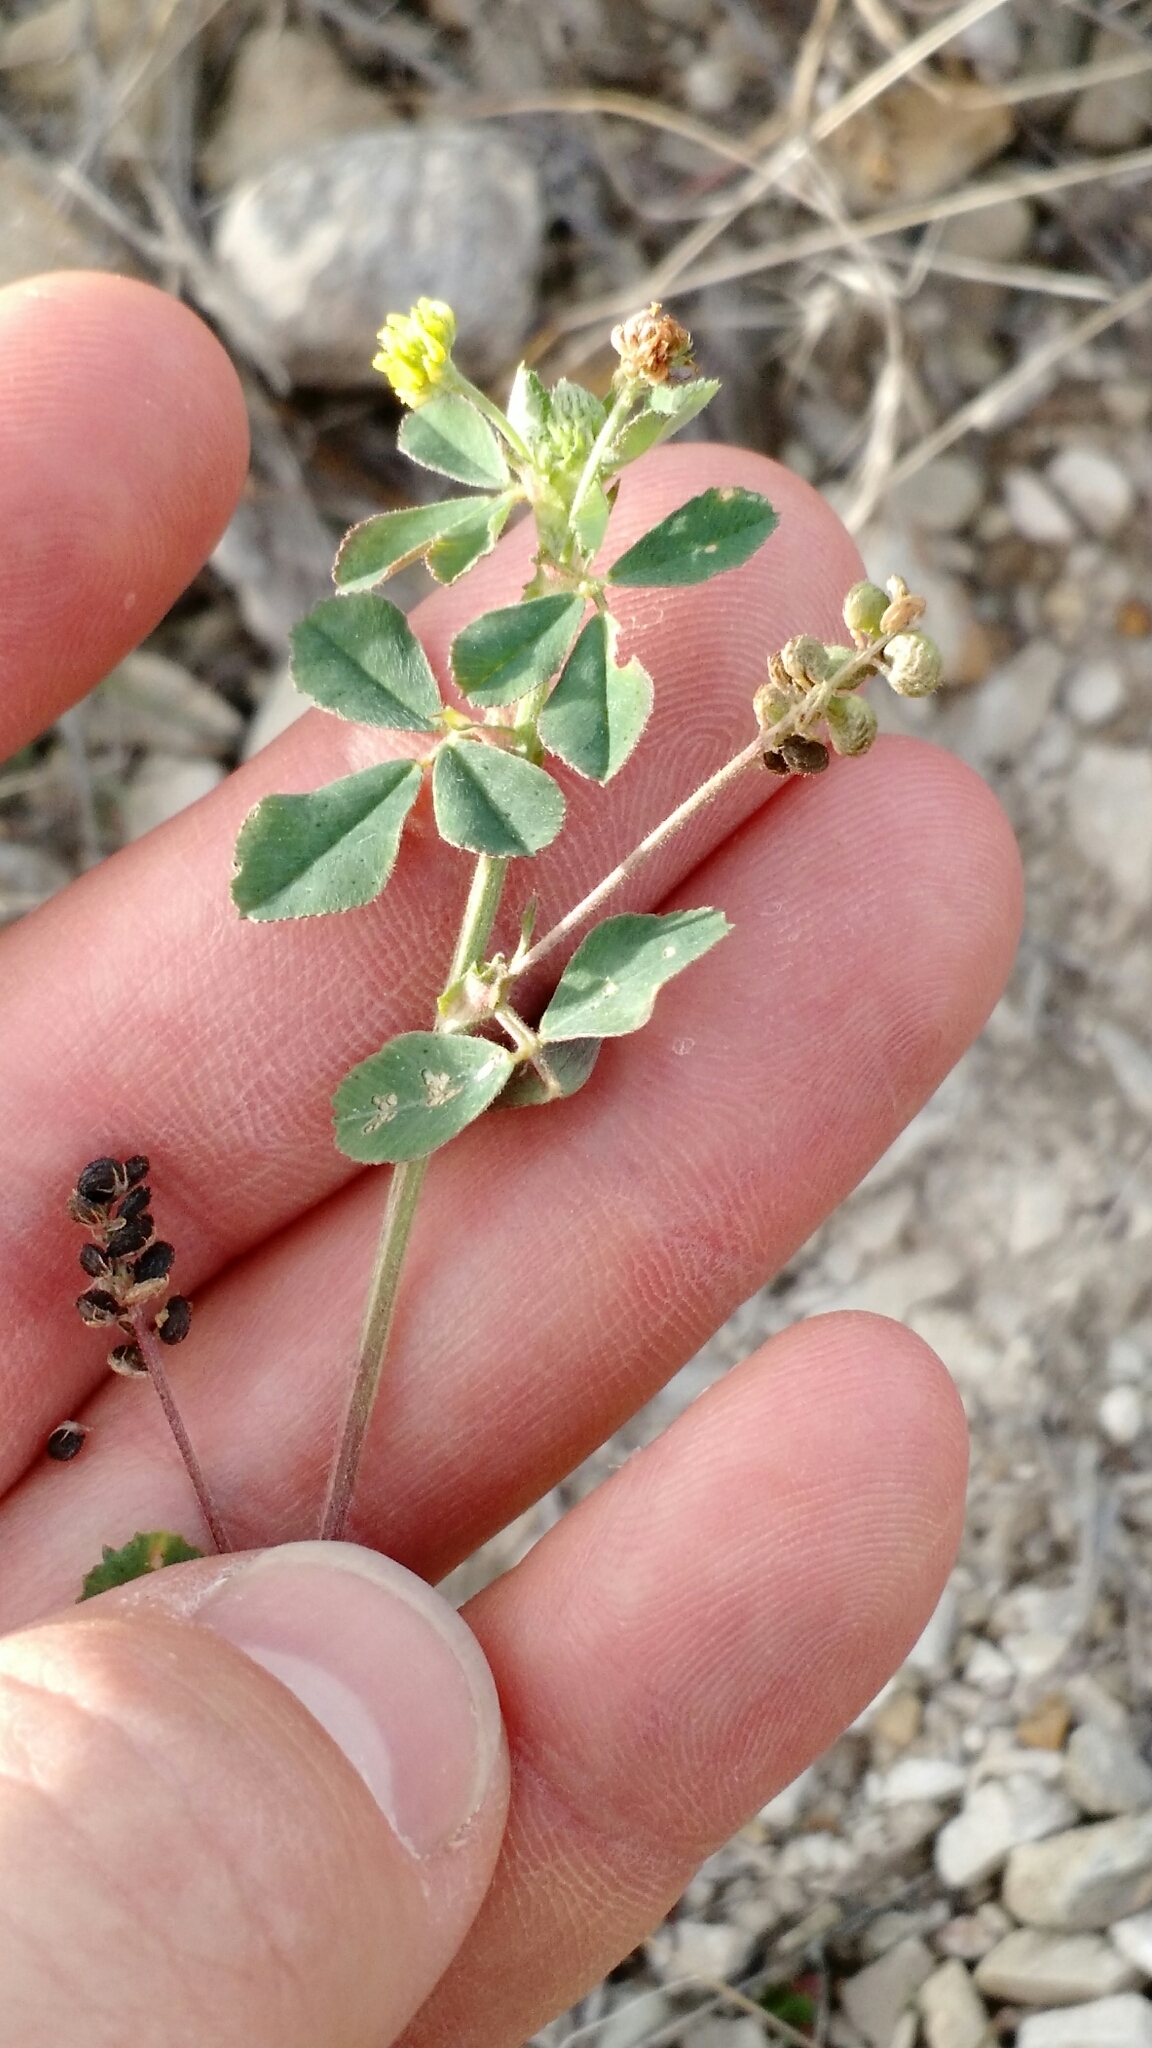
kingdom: Plantae
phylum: Tracheophyta
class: Magnoliopsida
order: Fabales
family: Fabaceae
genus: Medicago
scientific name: Medicago lupulina
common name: Black medick
